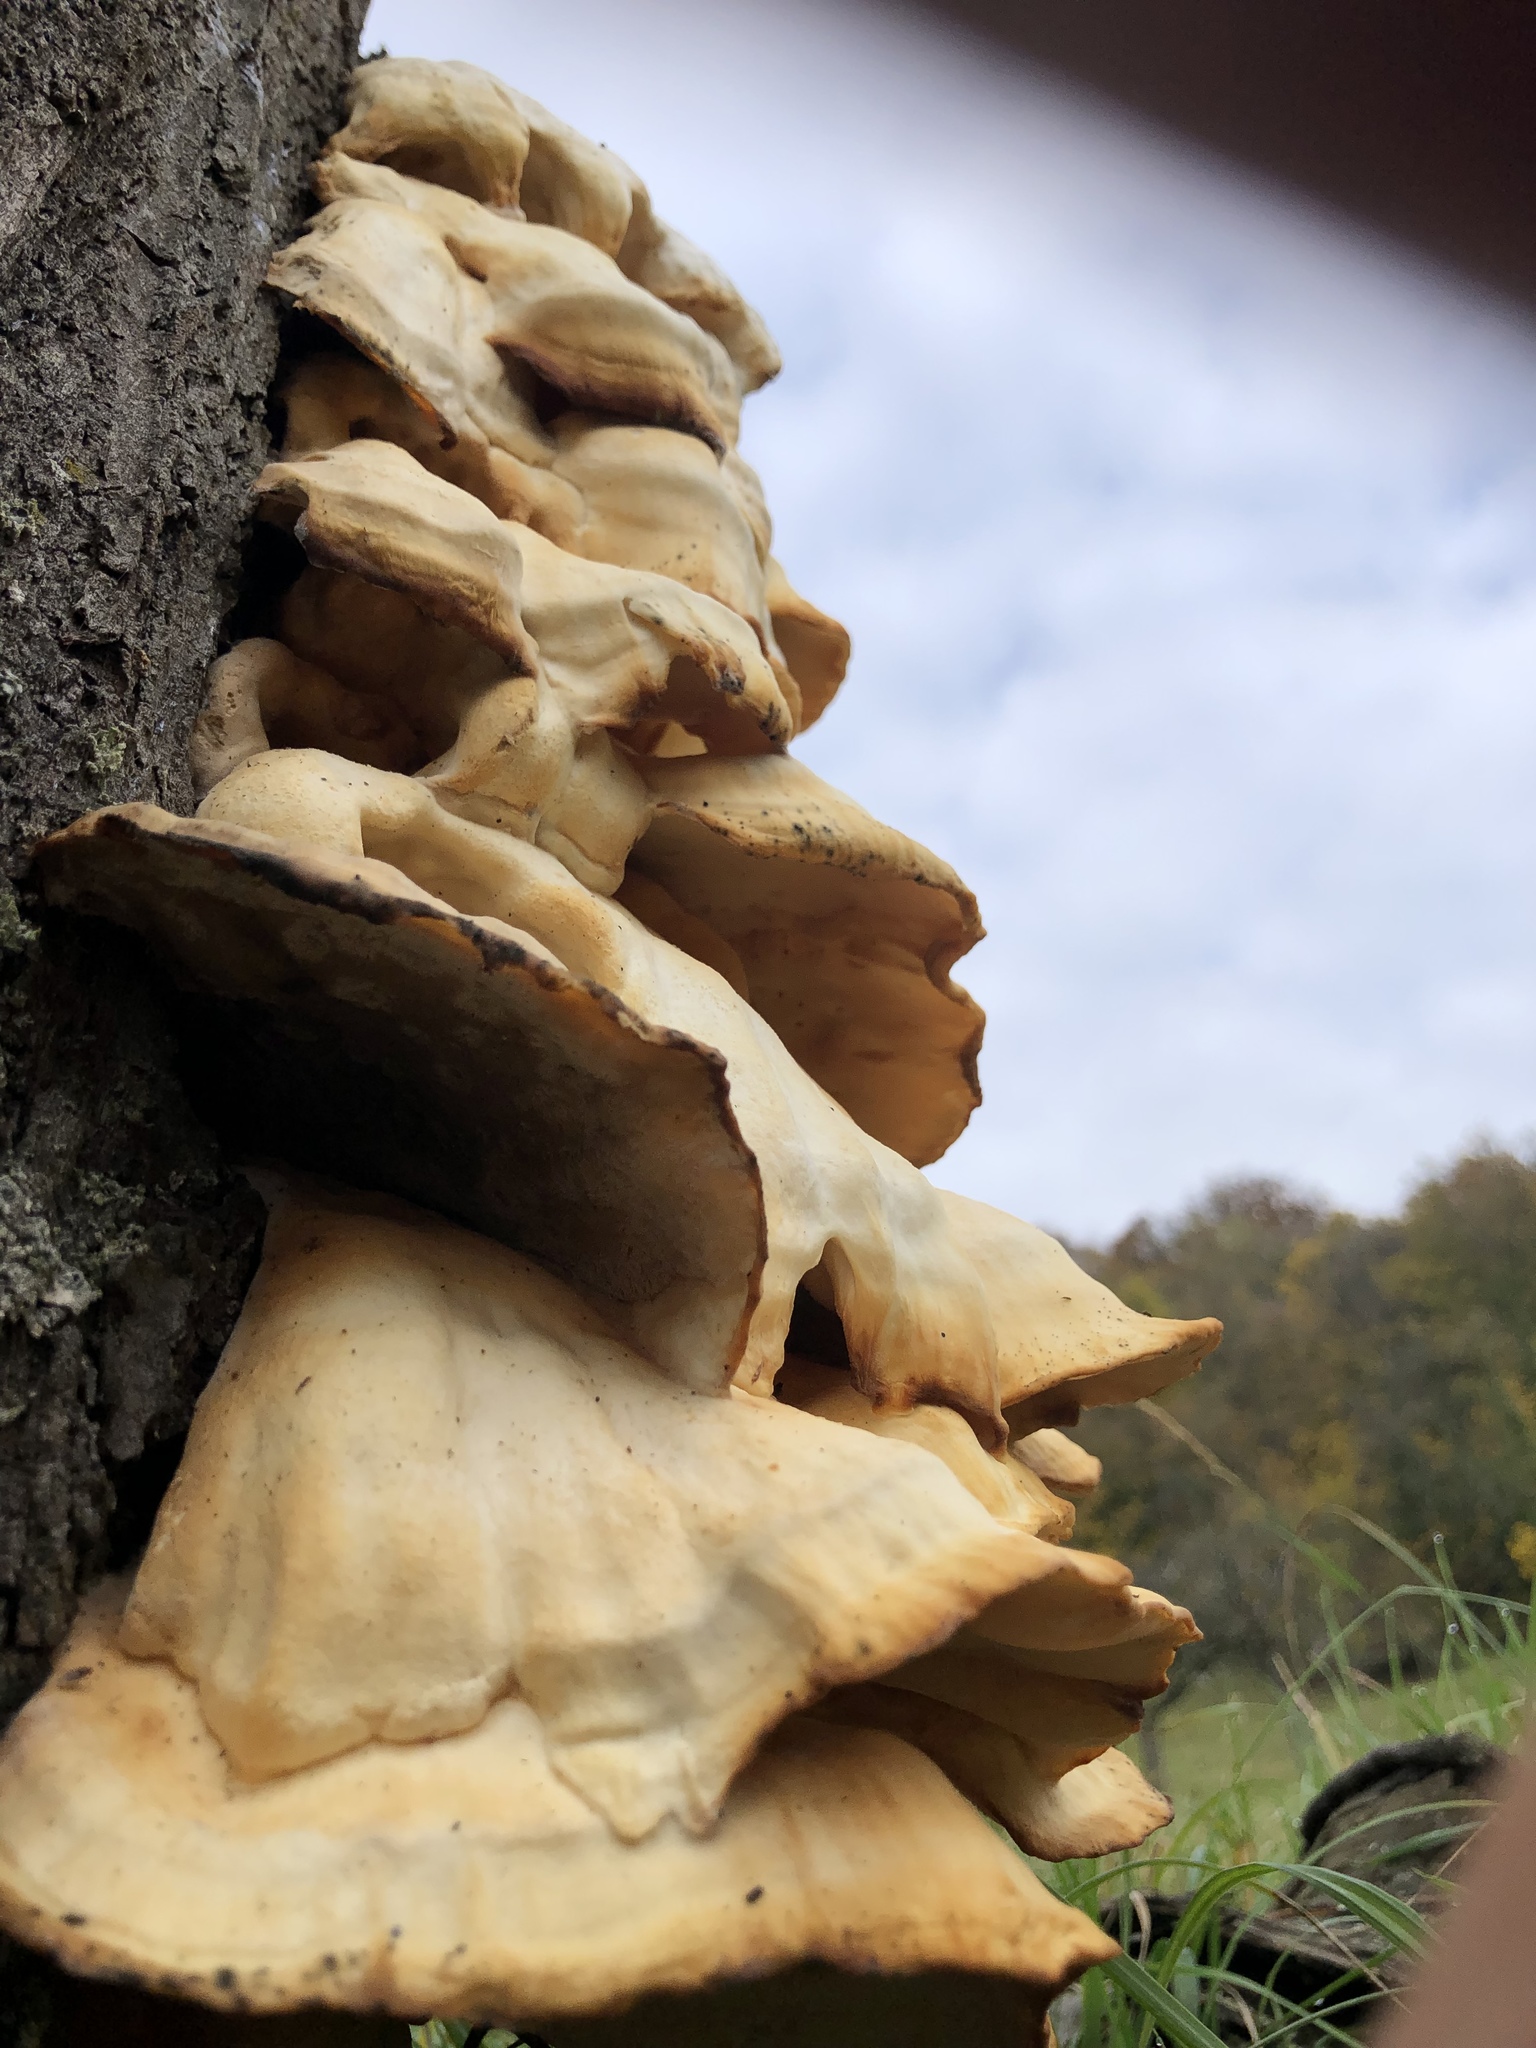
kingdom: Fungi
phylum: Basidiomycota
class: Agaricomycetes
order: Polyporales
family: Laetiporaceae
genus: Laetiporus
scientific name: Laetiporus sulphureus
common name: Chicken of the woods
